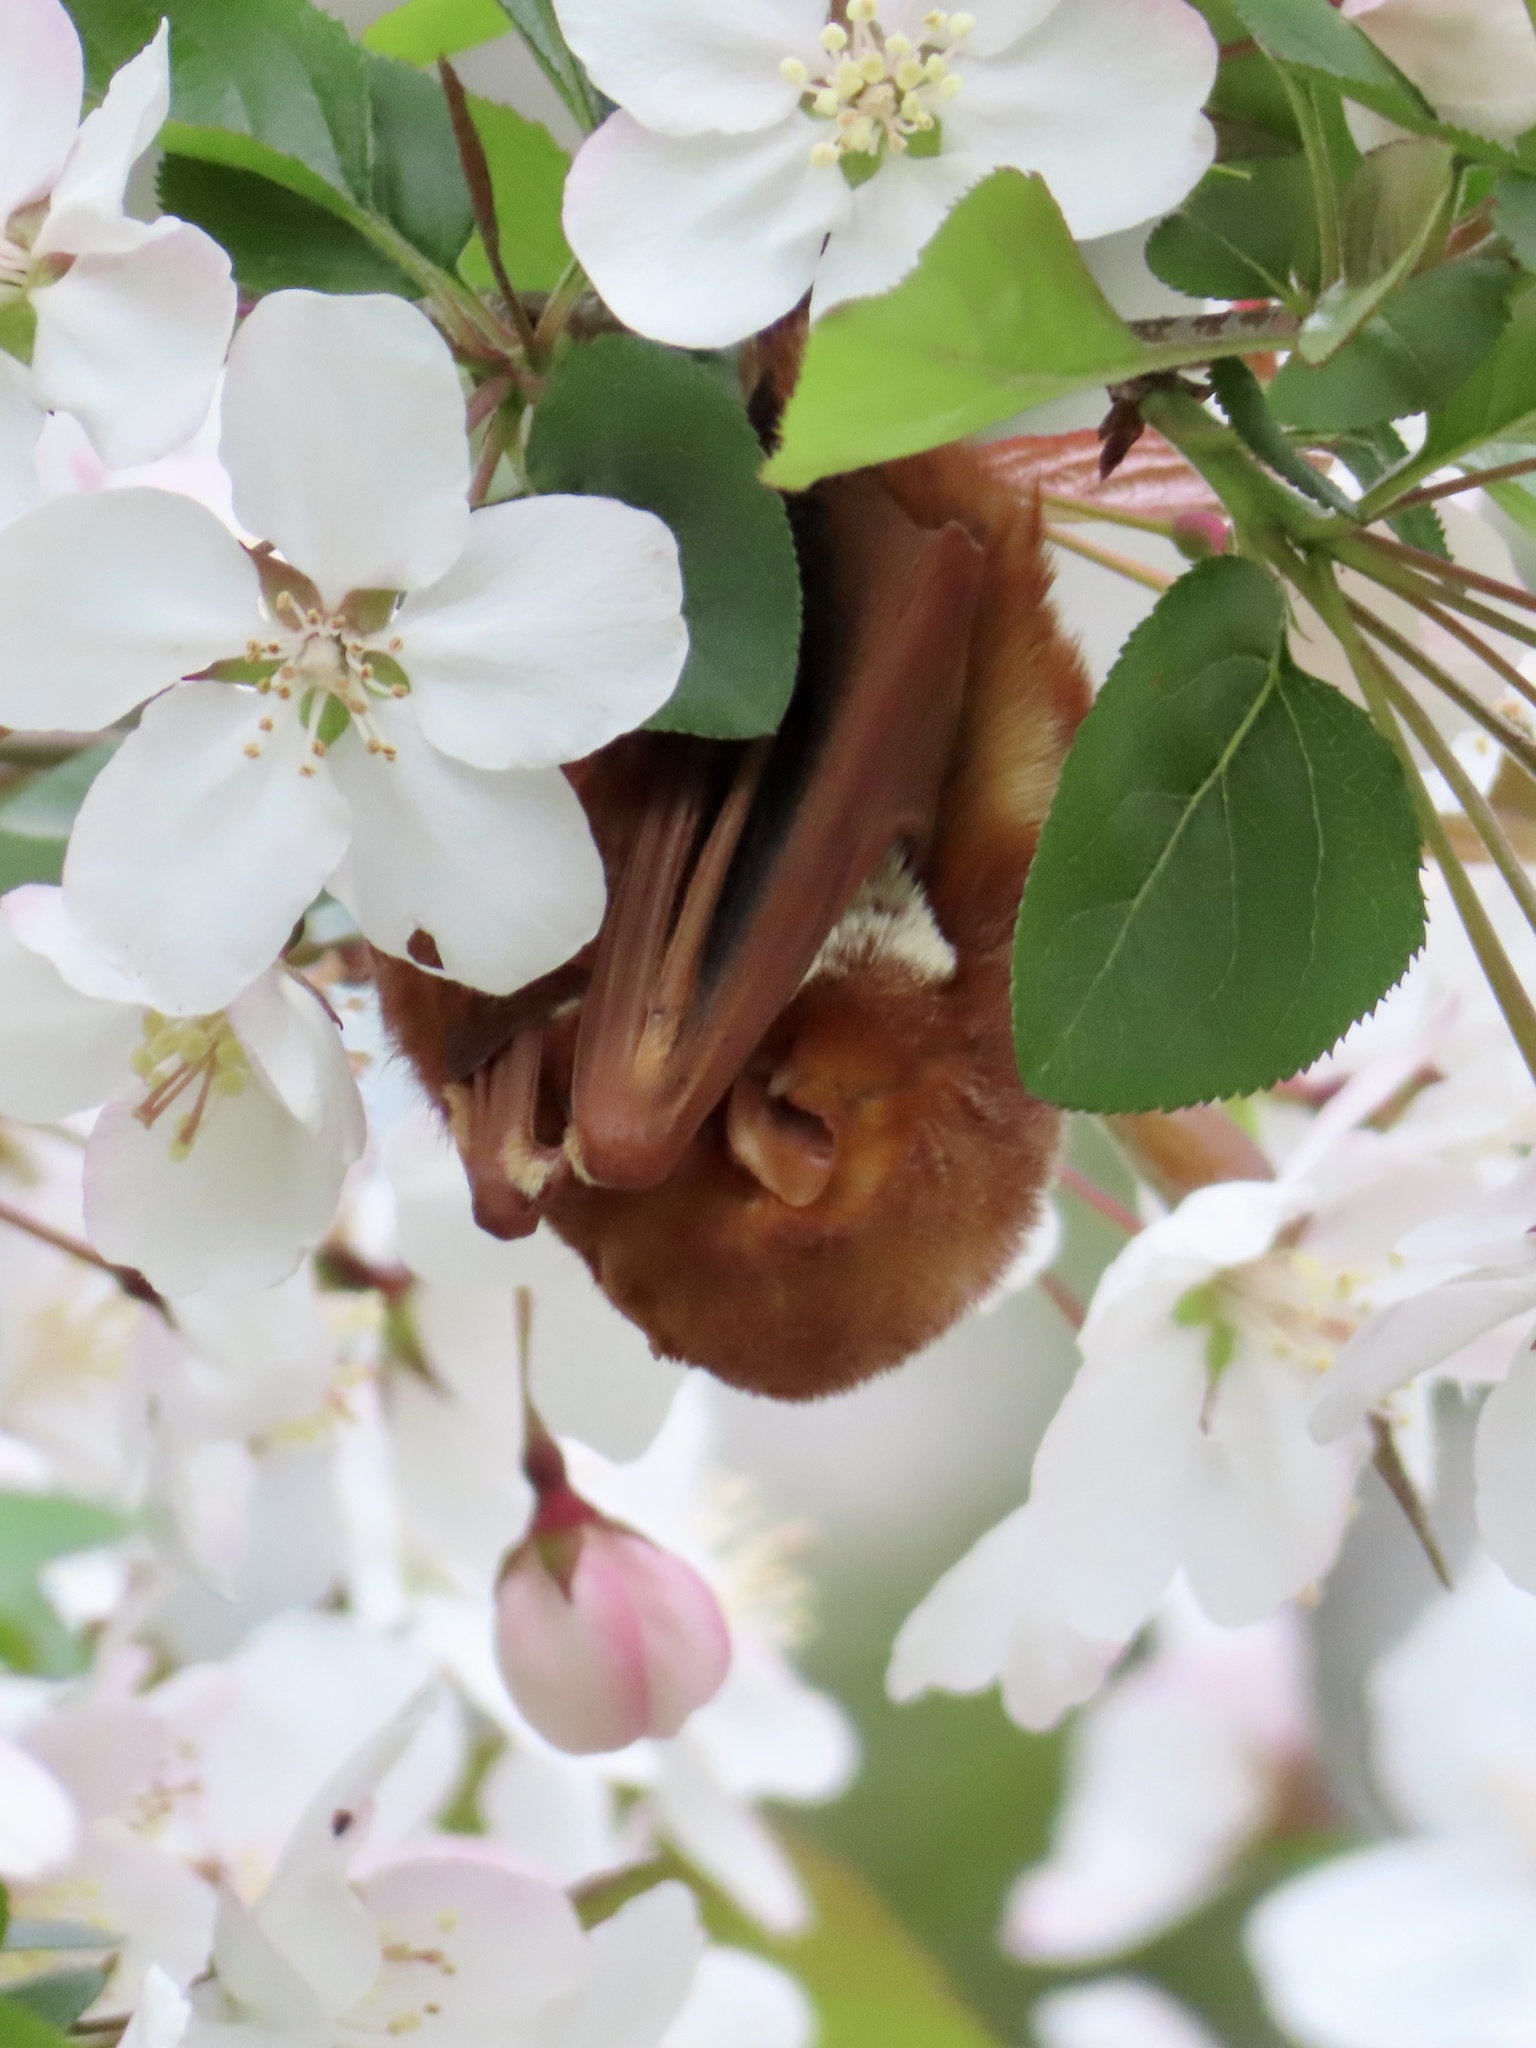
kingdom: Animalia
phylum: Chordata
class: Mammalia
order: Chiroptera
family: Vespertilionidae
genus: Lasiurus
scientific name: Lasiurus borealis
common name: Eastern red bat
